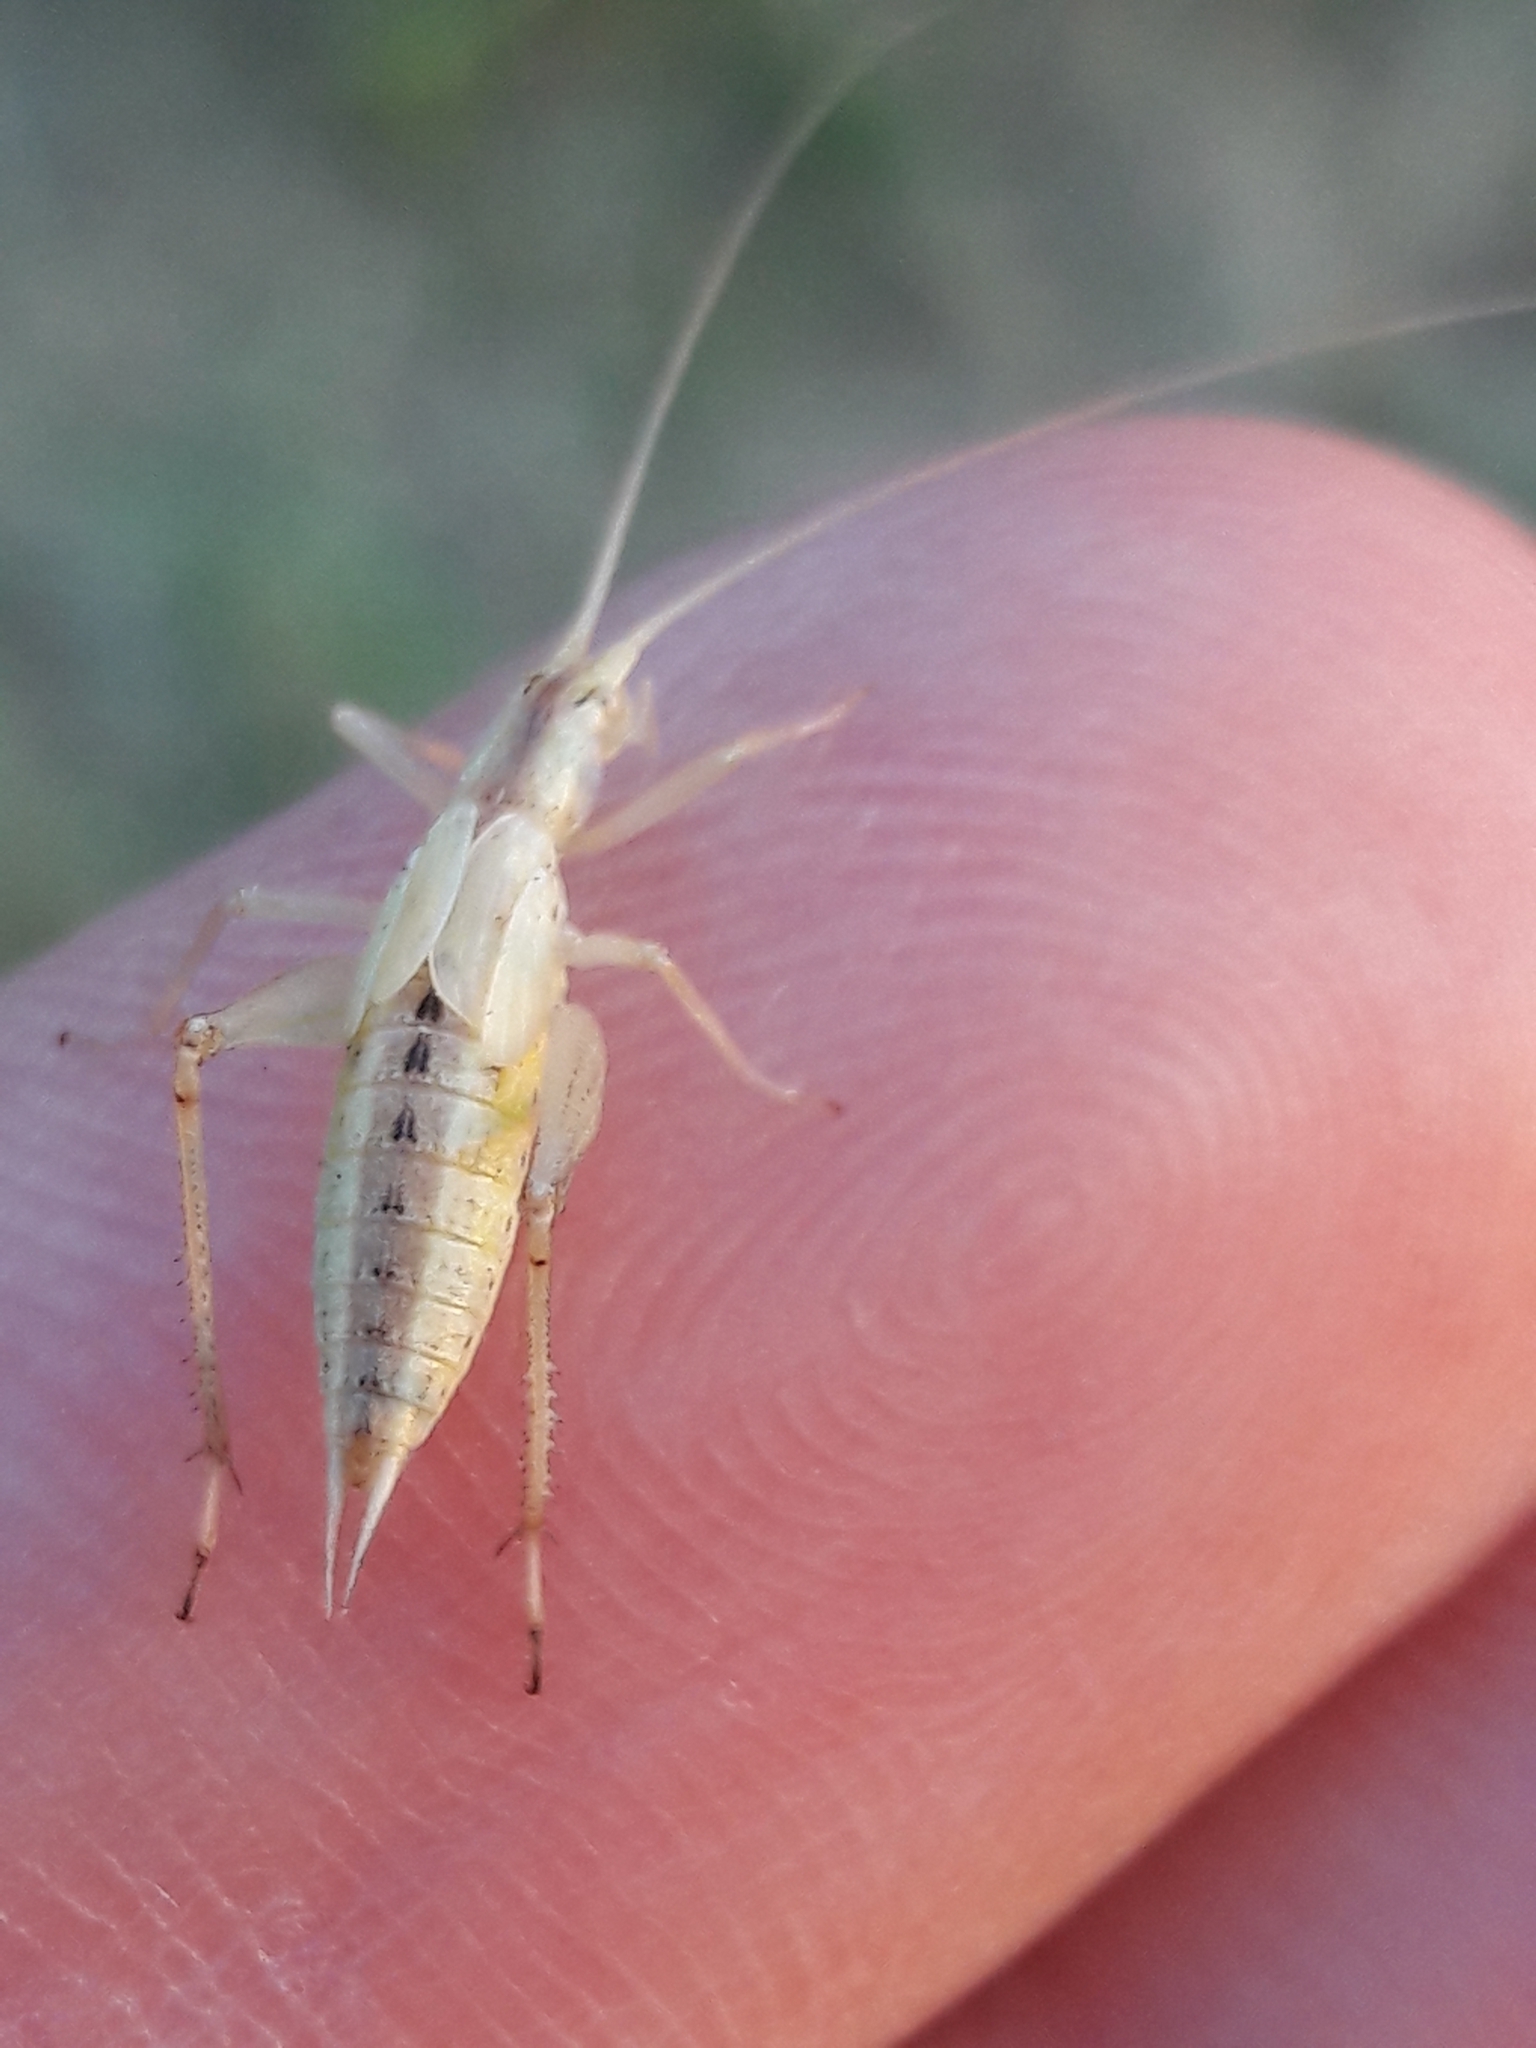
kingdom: Animalia
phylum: Arthropoda
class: Insecta
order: Orthoptera
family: Gryllidae
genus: Oecanthus
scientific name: Oecanthus pellucens
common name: Tree-cricket
